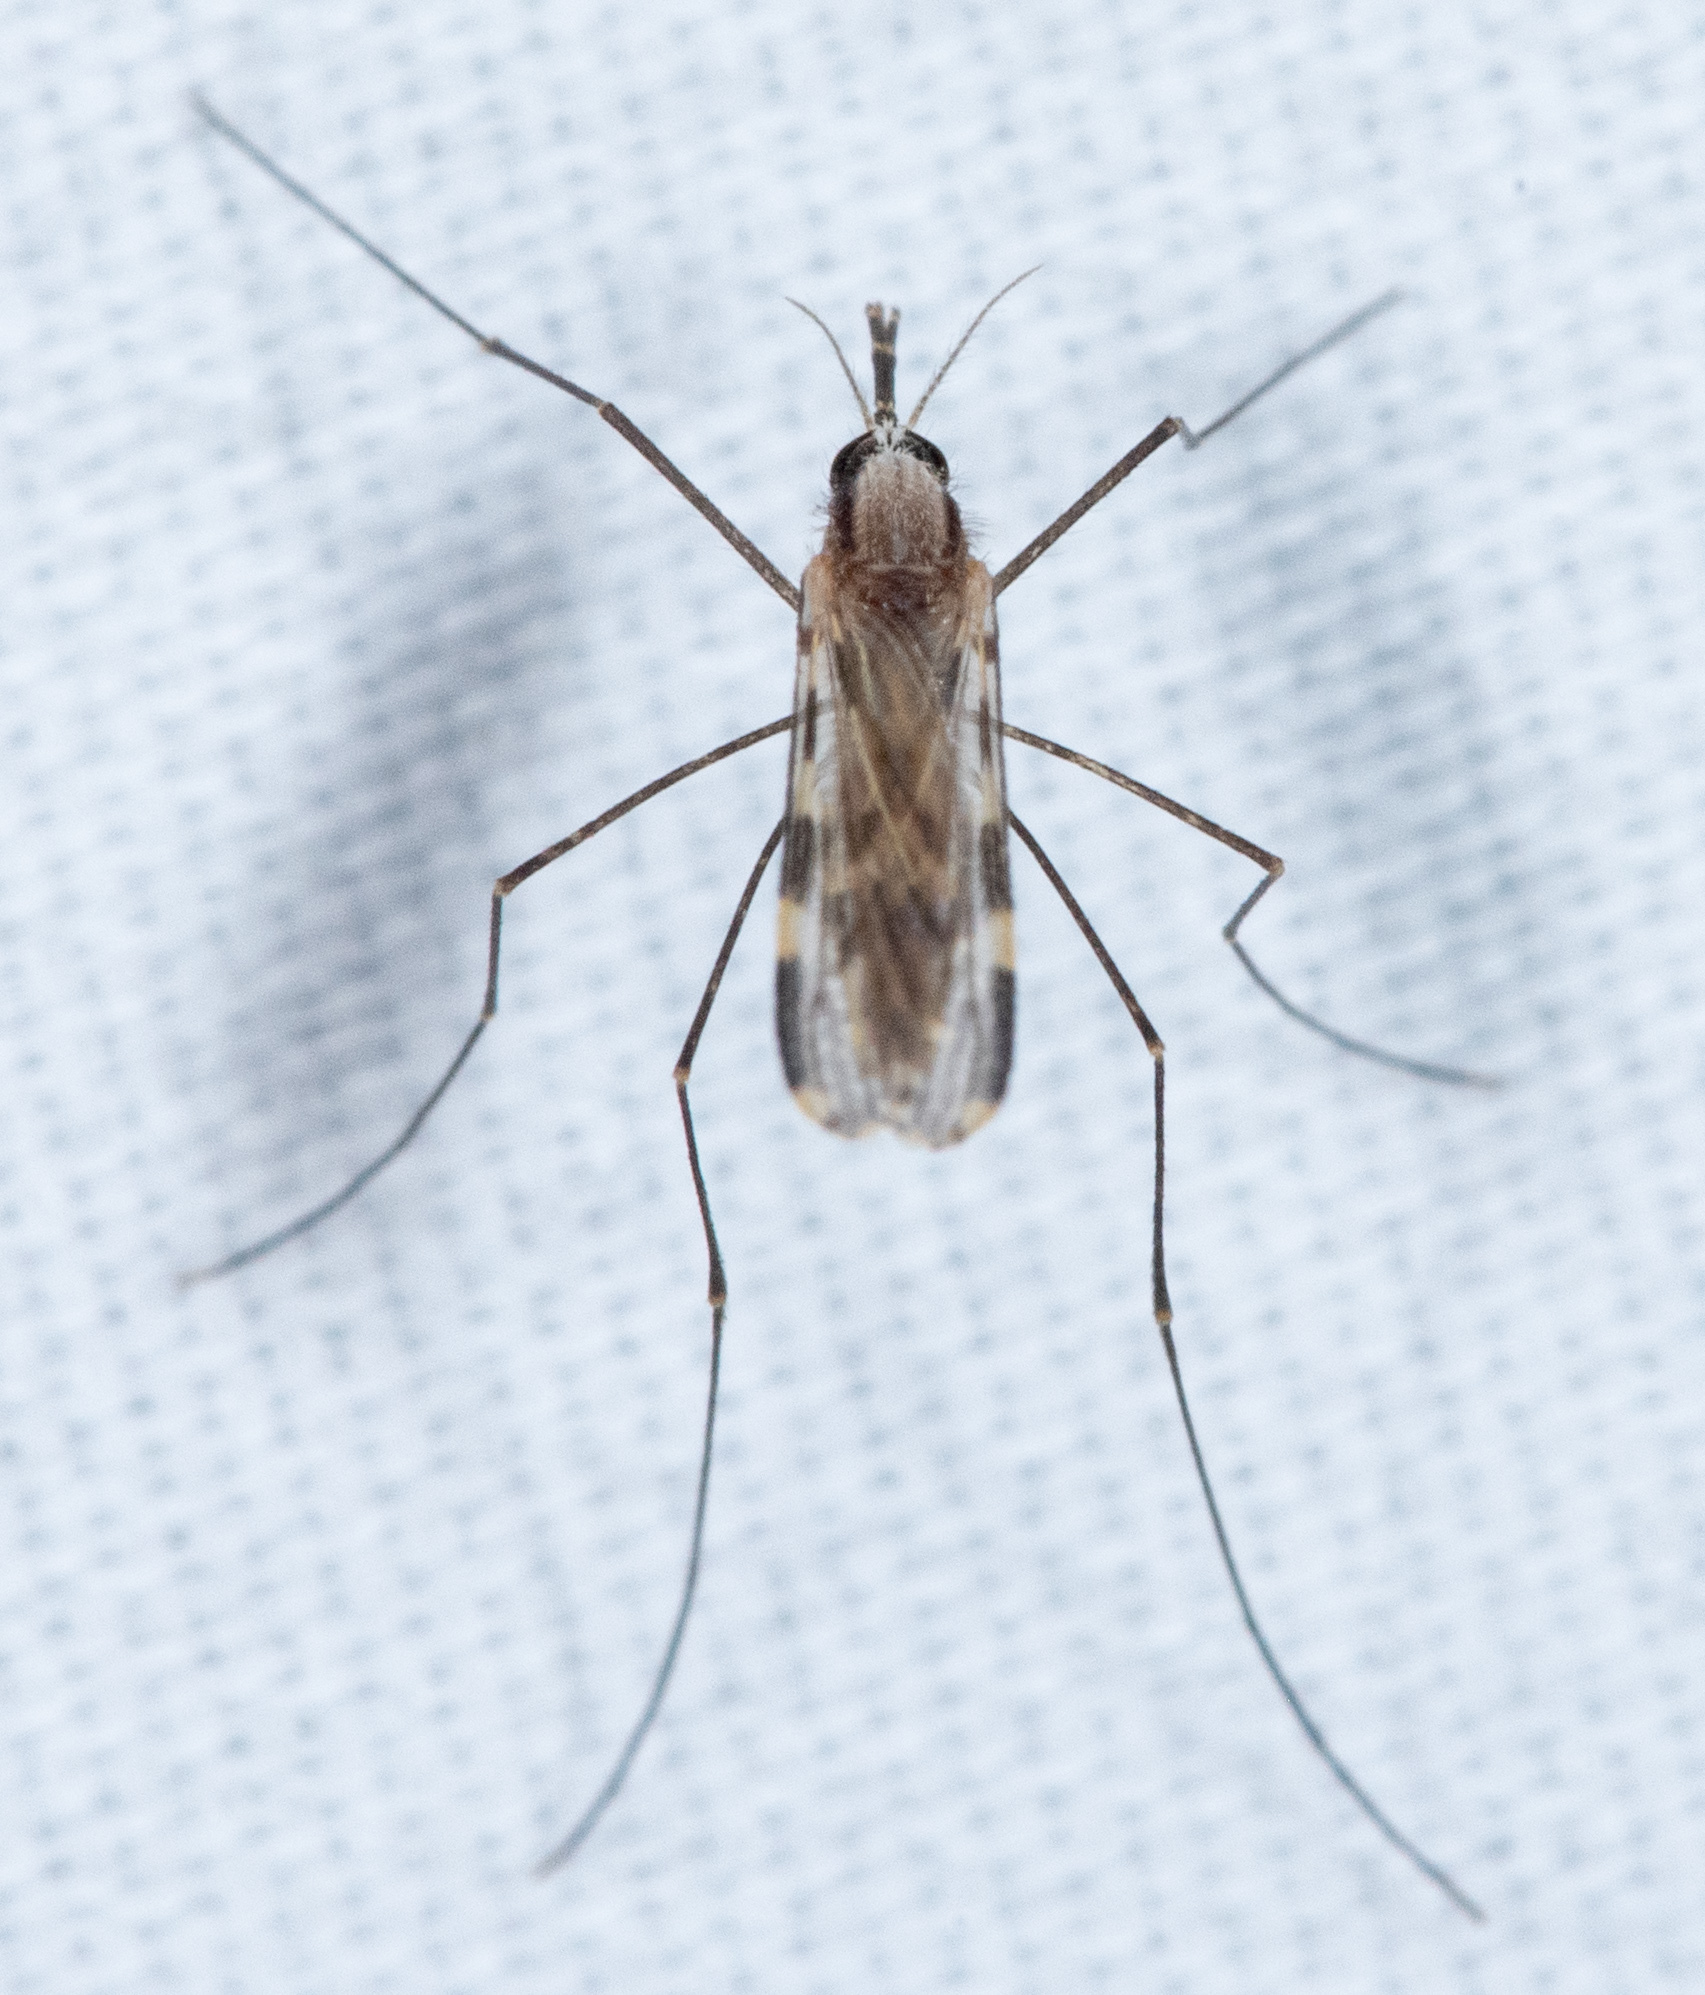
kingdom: Animalia
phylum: Arthropoda
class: Insecta
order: Diptera
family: Culicidae
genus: Anopheles
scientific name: Anopheles franciscanus
